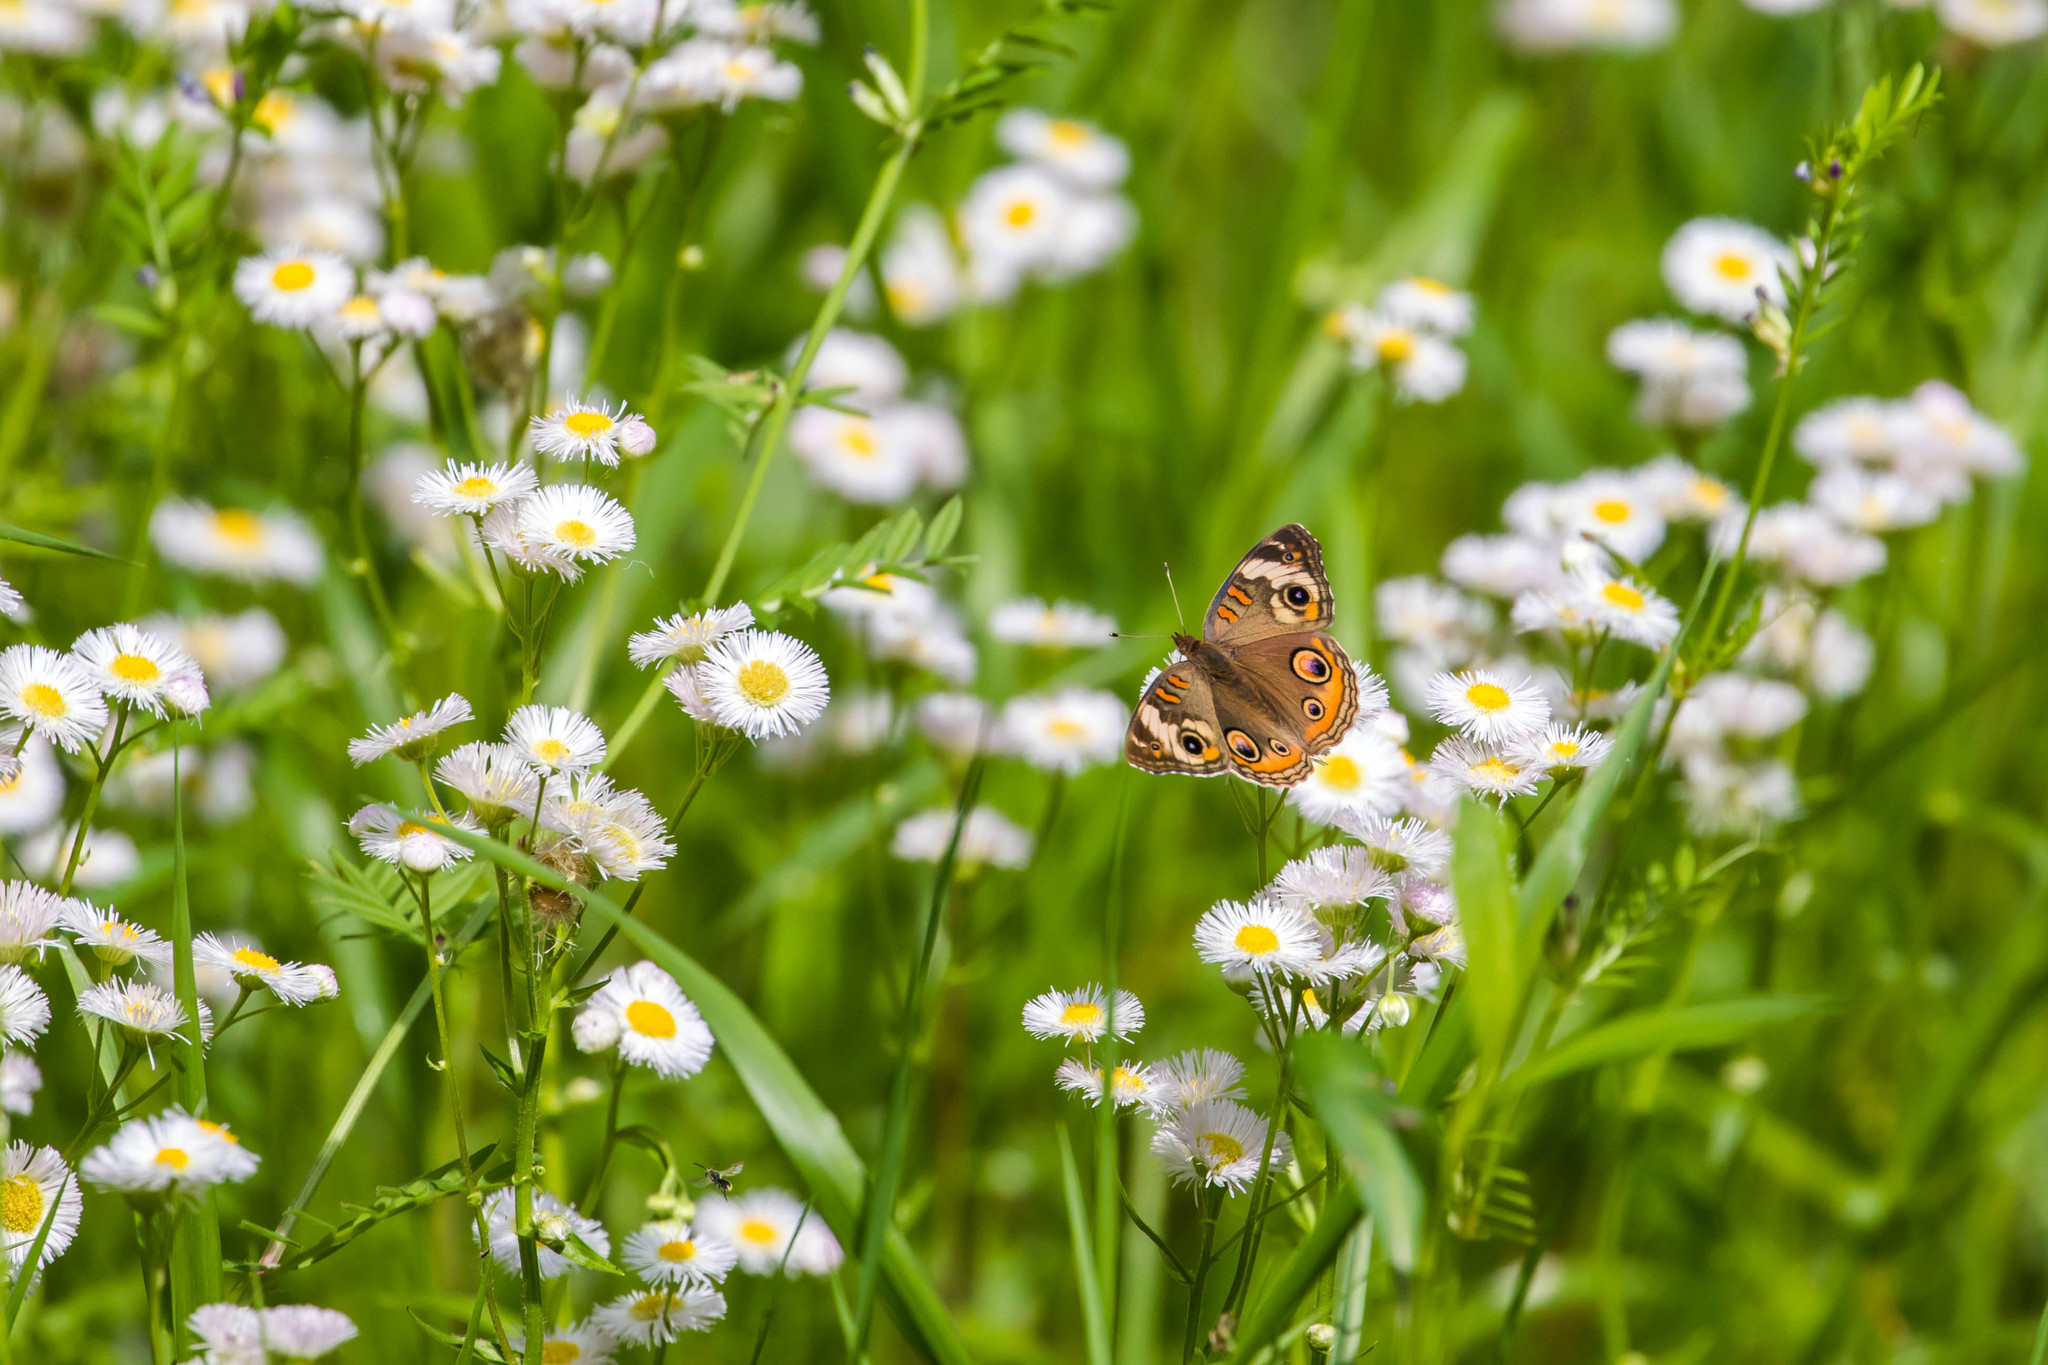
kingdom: Animalia
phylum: Arthropoda
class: Insecta
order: Lepidoptera
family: Nymphalidae
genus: Junonia
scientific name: Junonia coenia
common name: Common buckeye
